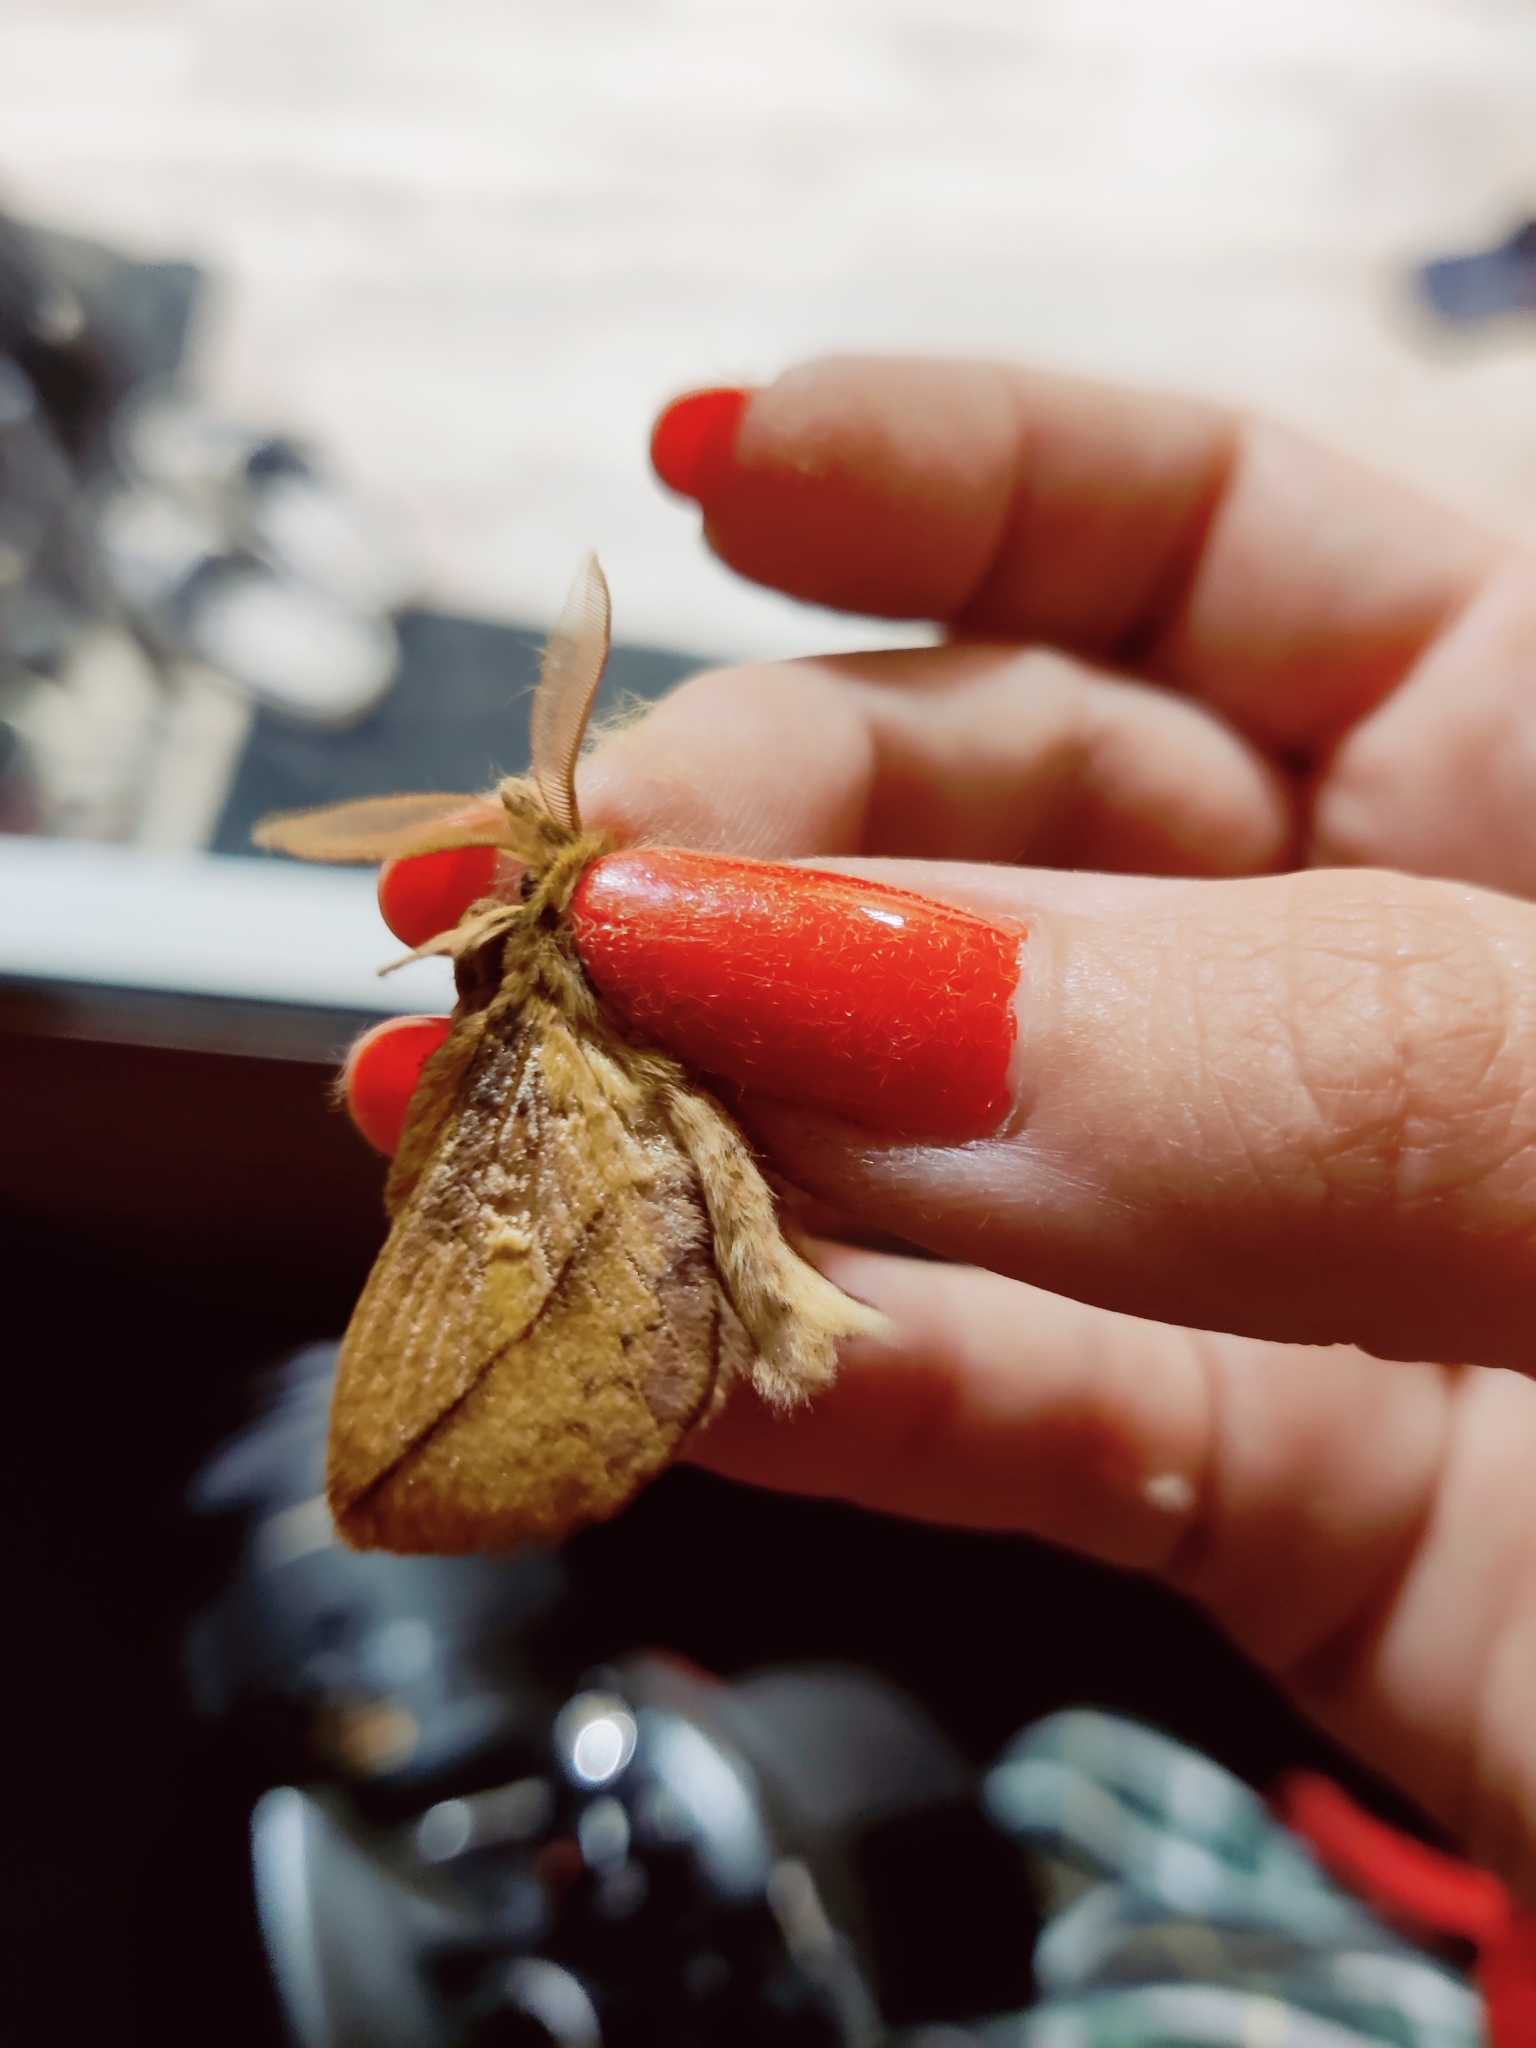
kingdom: Animalia
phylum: Arthropoda
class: Insecta
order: Lepidoptera
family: Lasiocampidae
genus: Euthrix
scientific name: Euthrix potatoria
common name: Drinker
